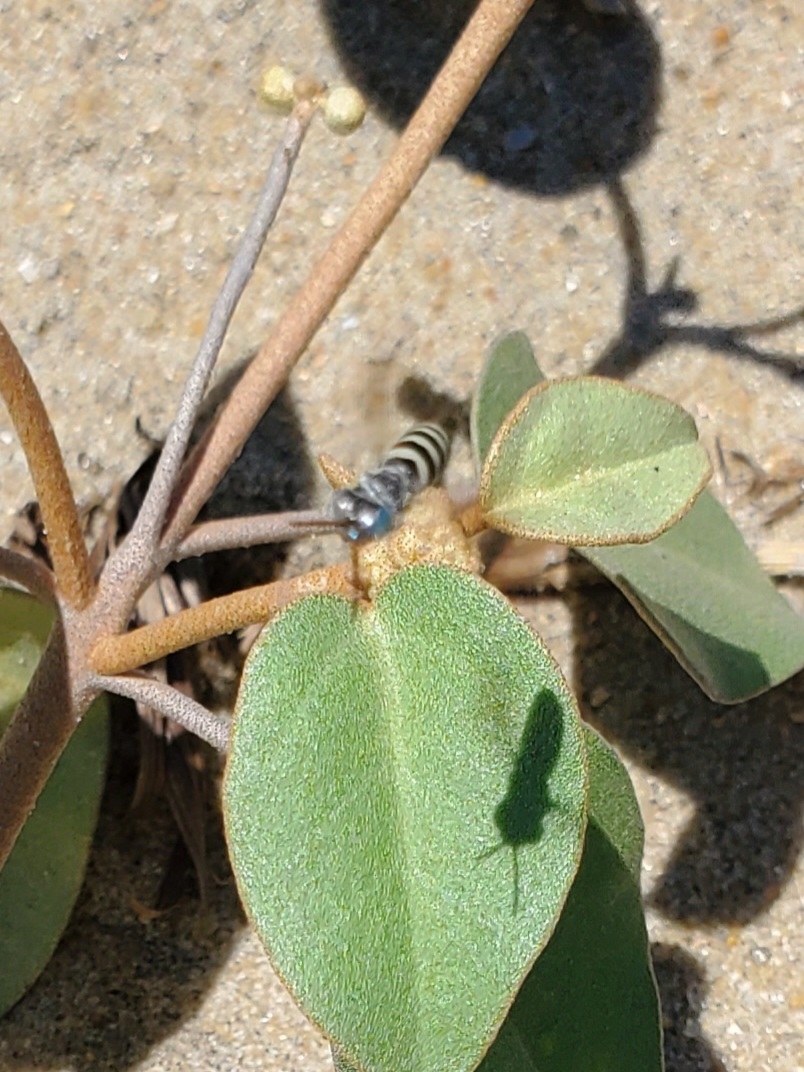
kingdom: Animalia
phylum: Arthropoda
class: Insecta
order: Hymenoptera
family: Crabronidae
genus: Microbembex
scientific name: Microbembex monodonta
